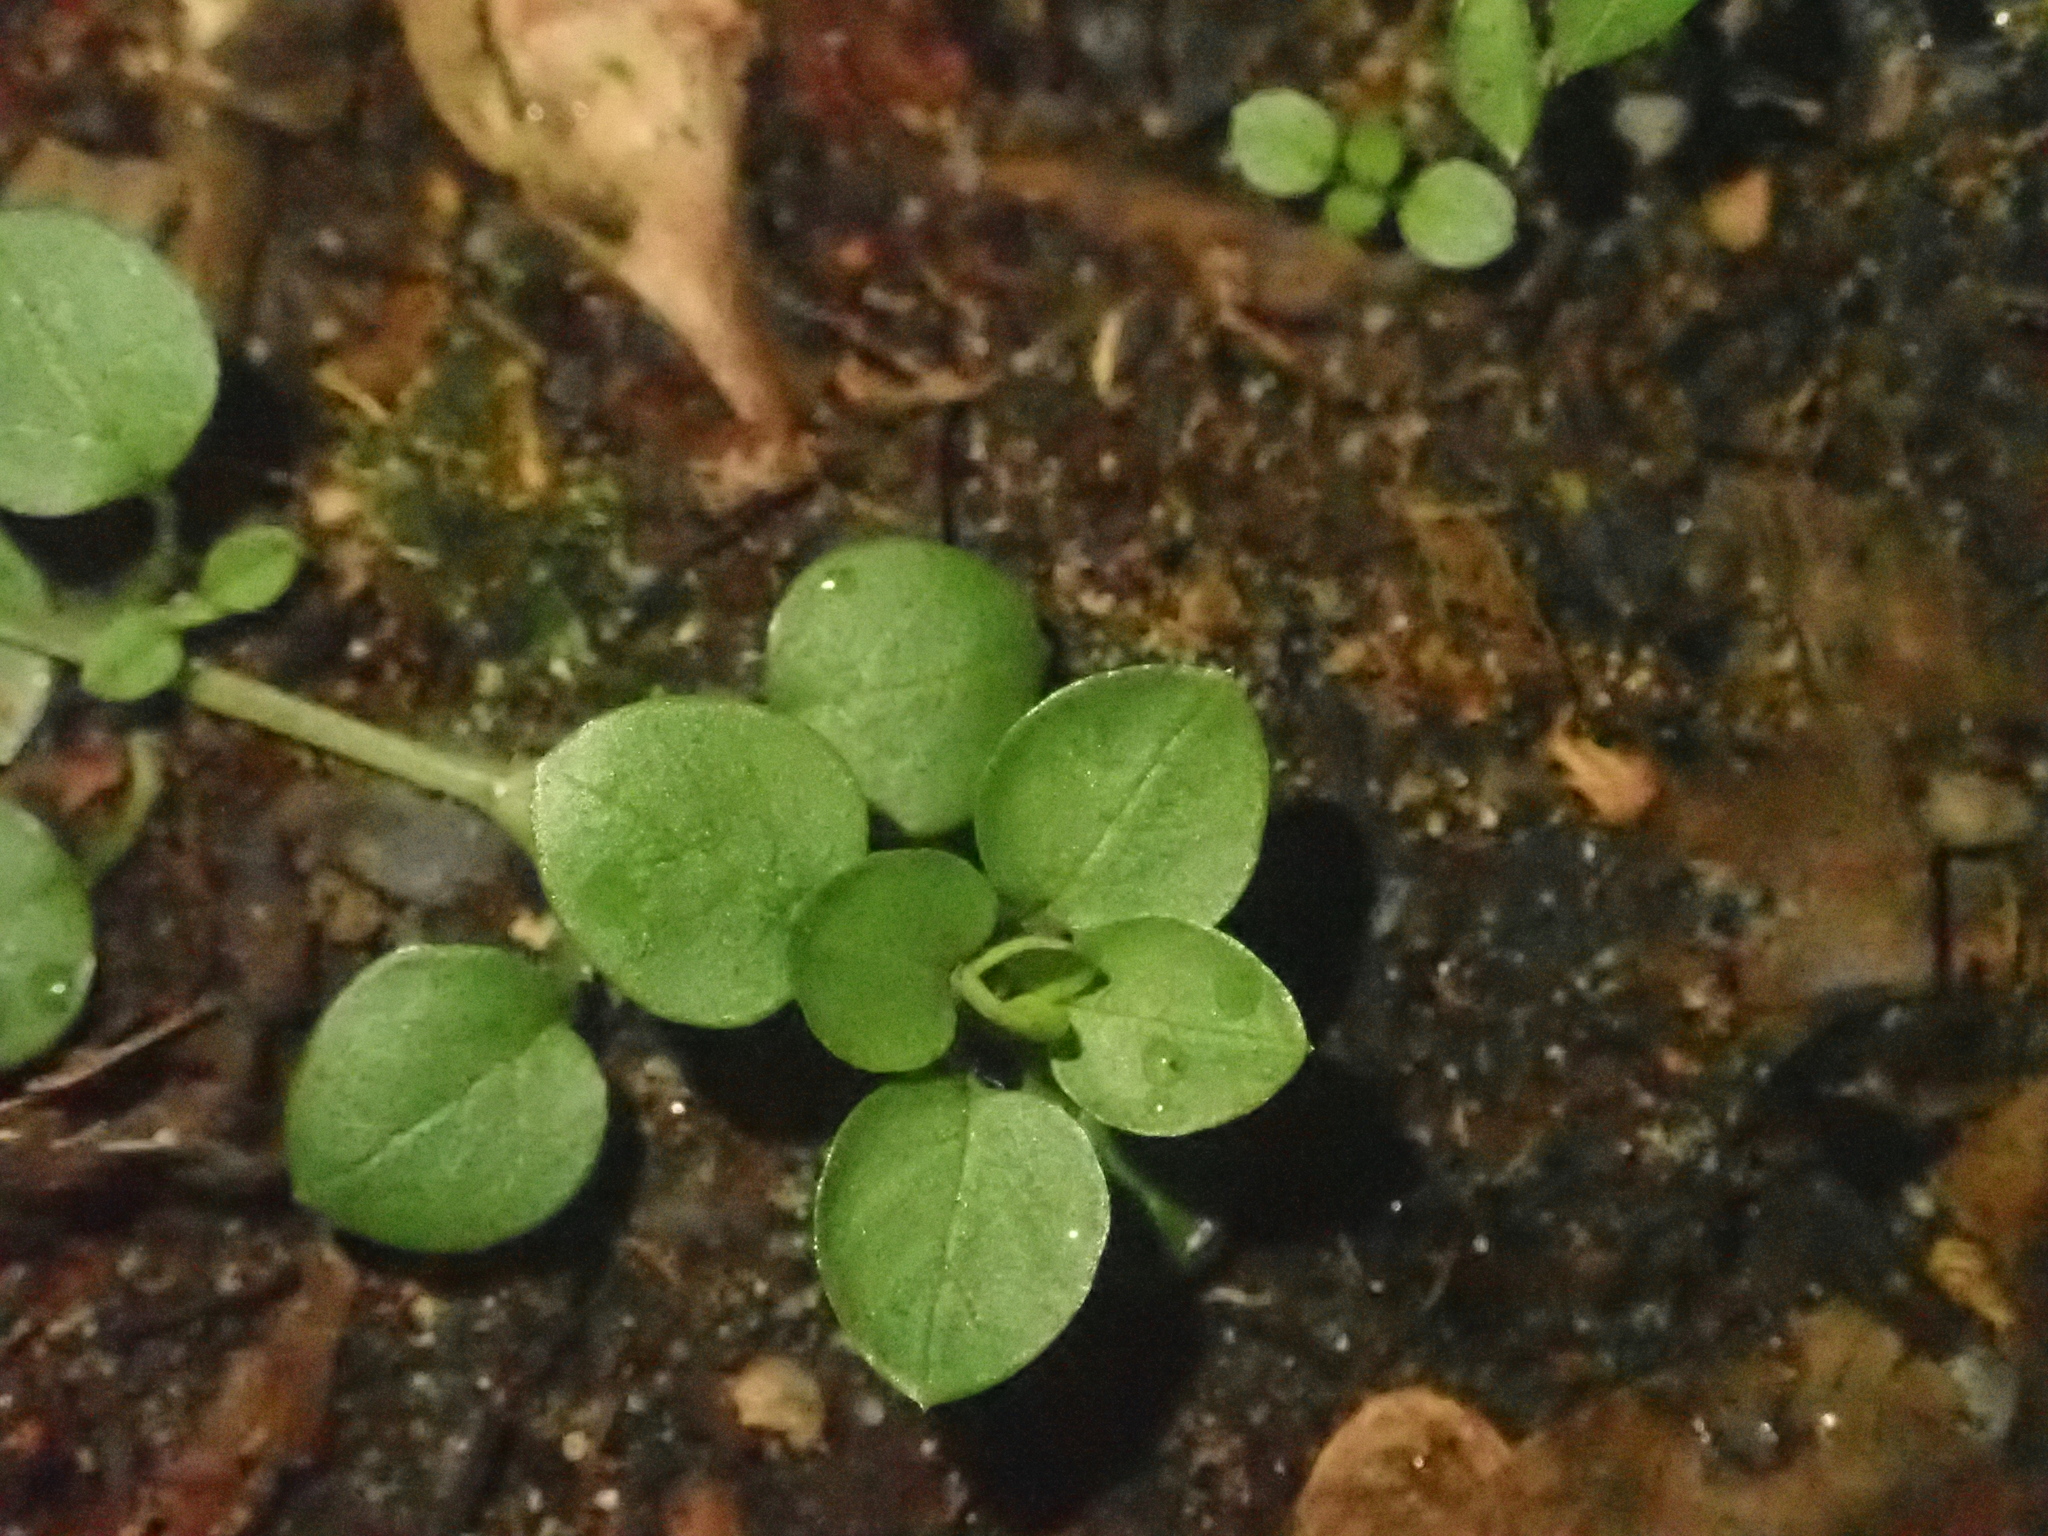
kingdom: Plantae
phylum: Tracheophyta
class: Magnoliopsida
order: Caryophyllales
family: Caryophyllaceae
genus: Stellaria
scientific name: Stellaria media
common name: Common chickweed
